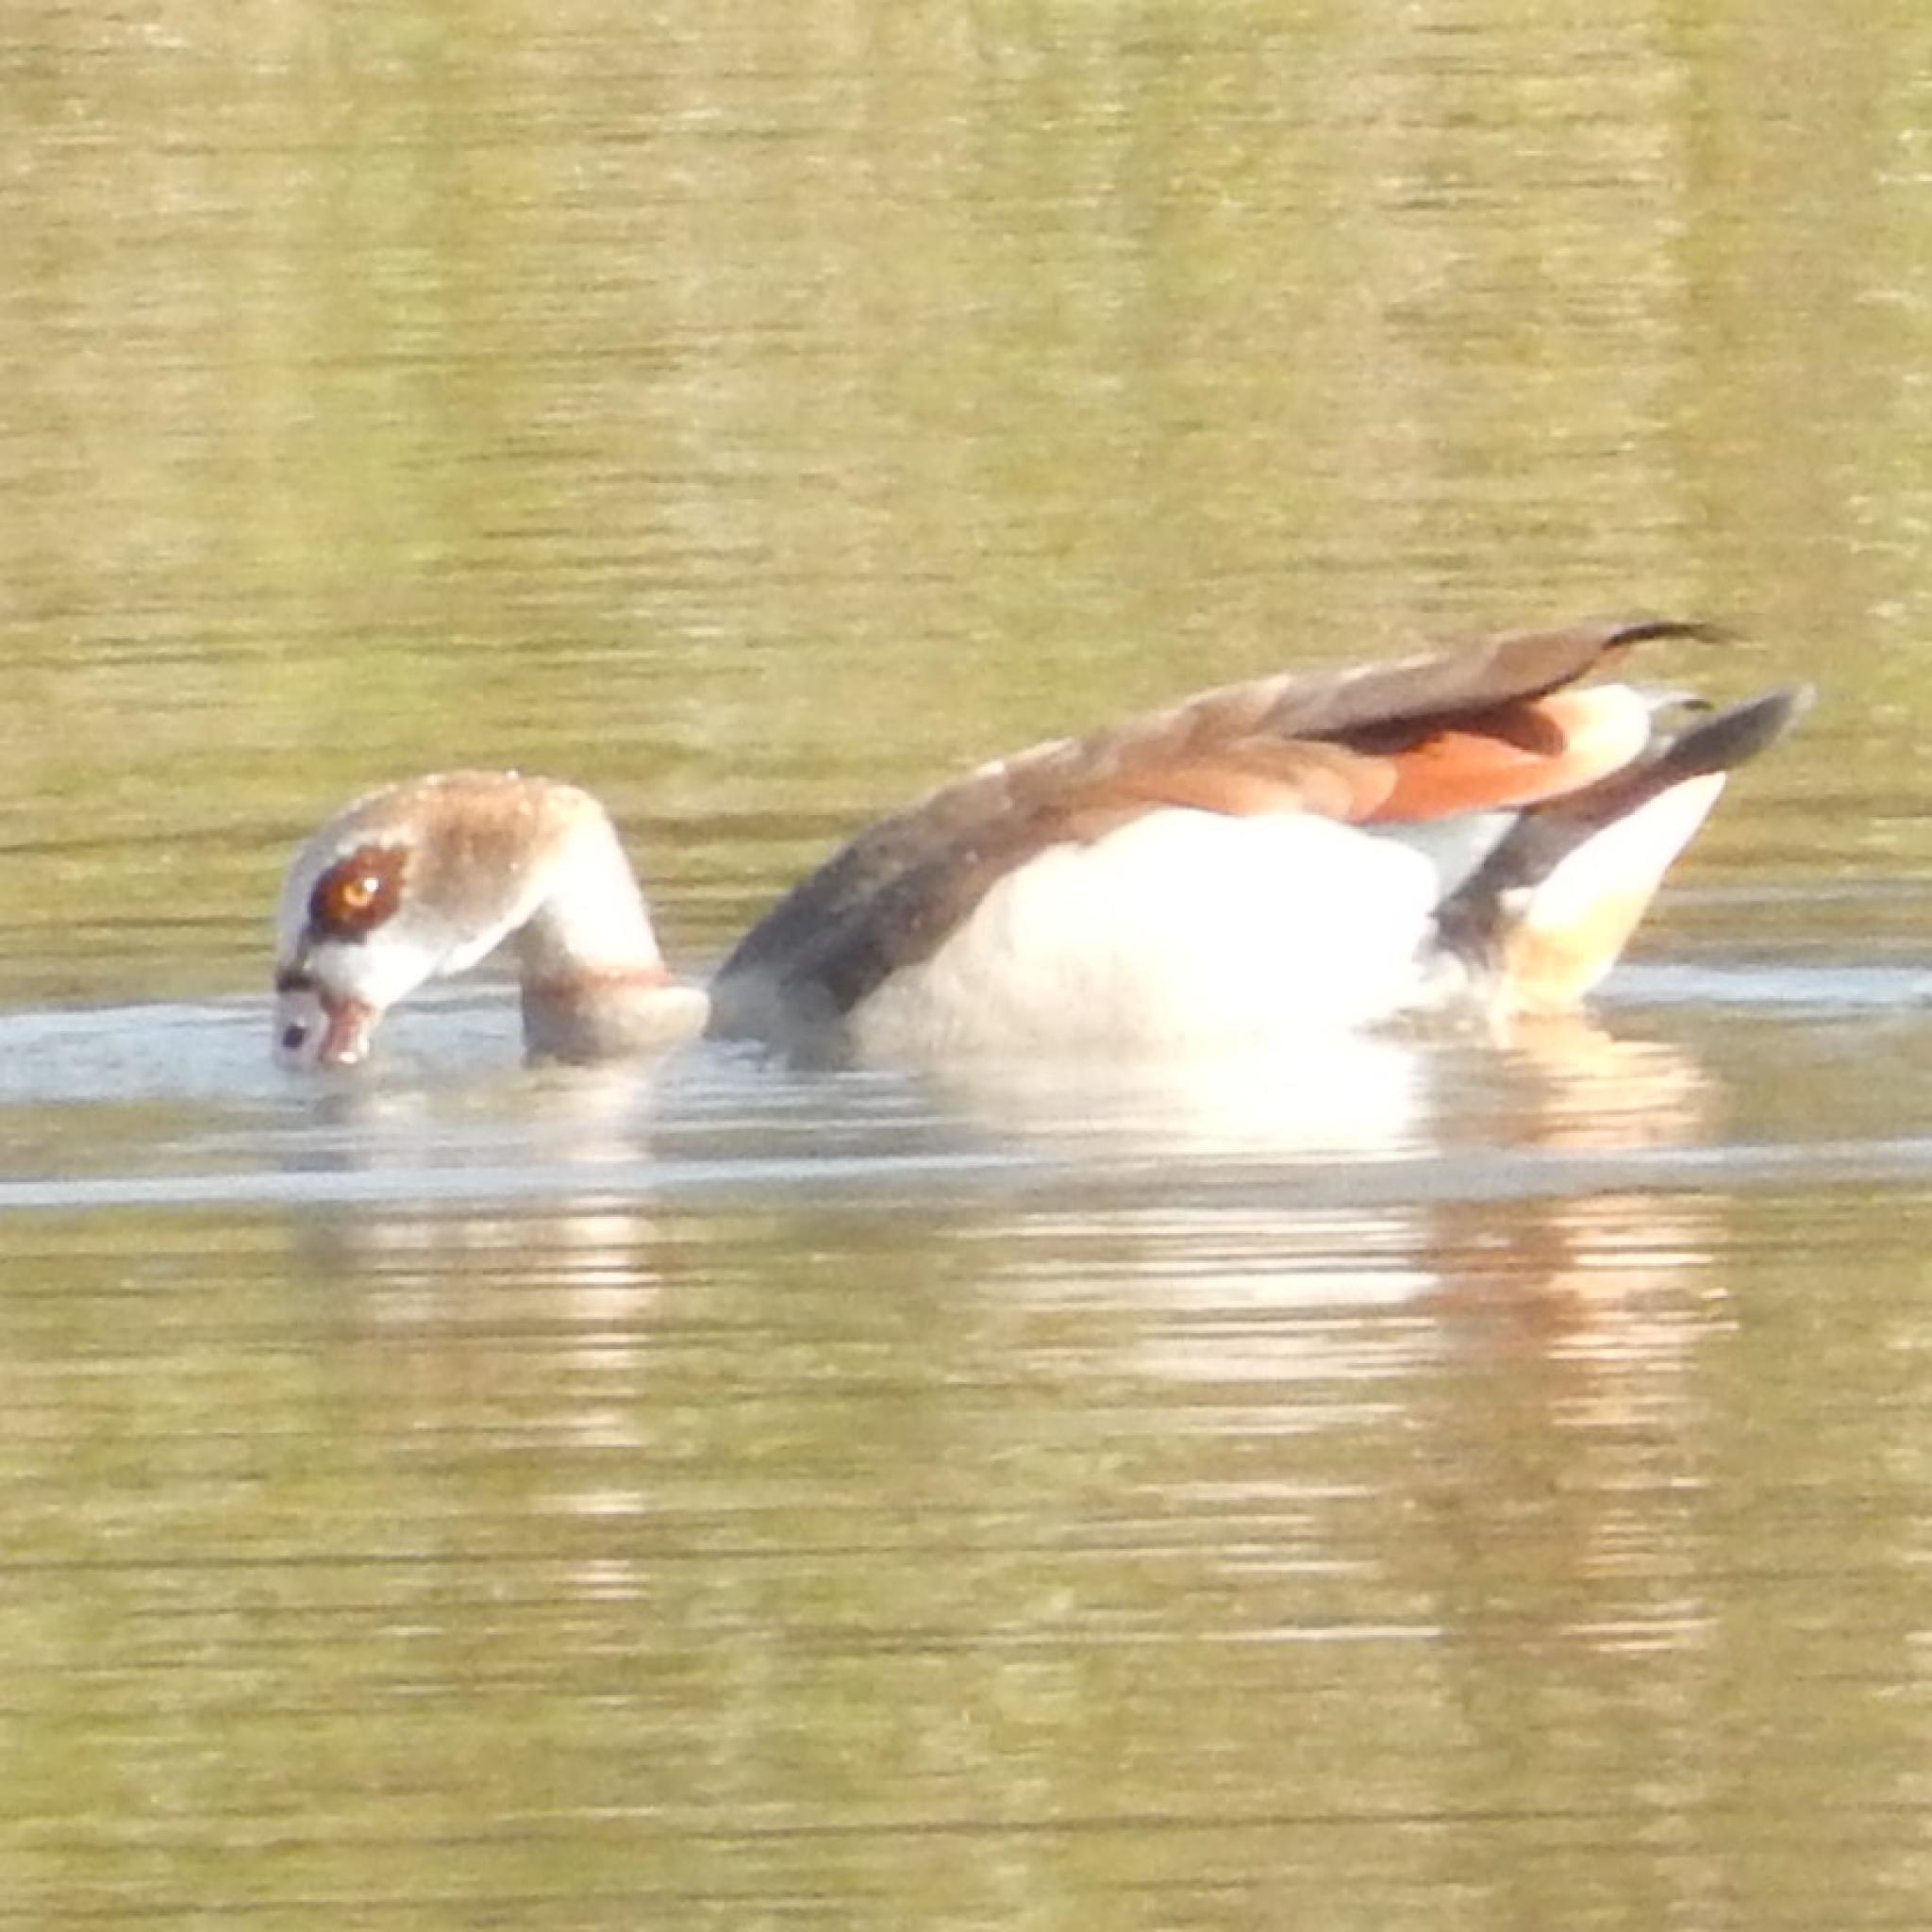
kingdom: Animalia
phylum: Chordata
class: Aves
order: Anseriformes
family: Anatidae
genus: Alopochen
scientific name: Alopochen aegyptiaca
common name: Egyptian goose
